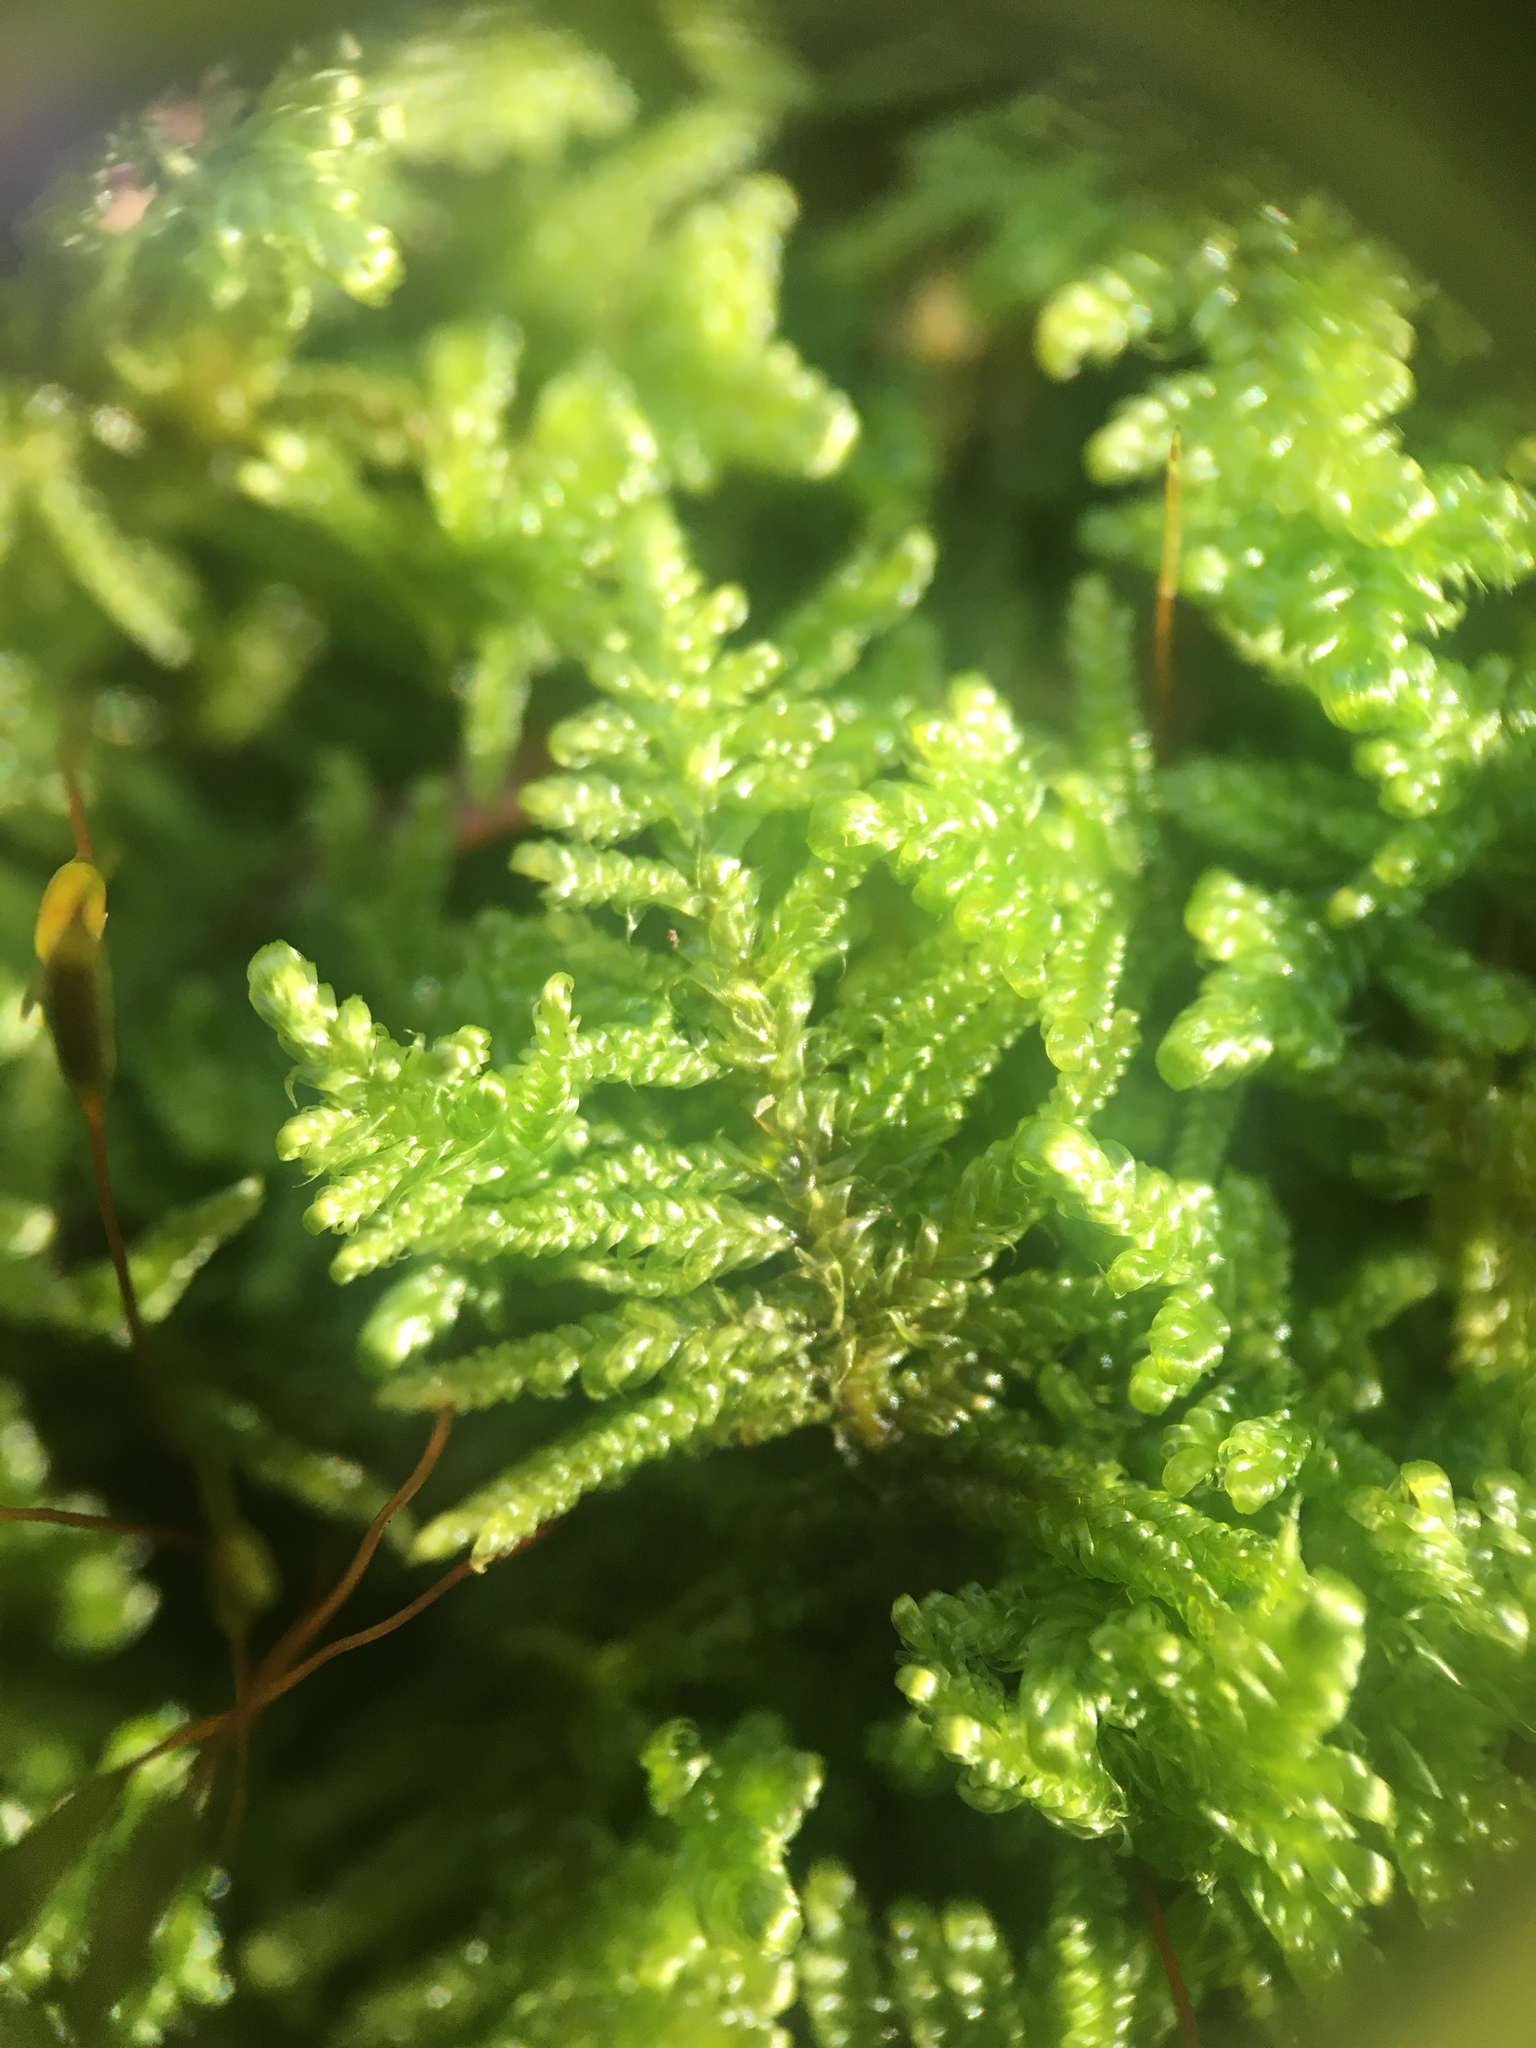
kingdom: Plantae
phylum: Bryophyta
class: Bryopsida
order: Hypnales
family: Callicladiaceae
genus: Callicladium
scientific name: Callicladium imponens
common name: Brocade moss
